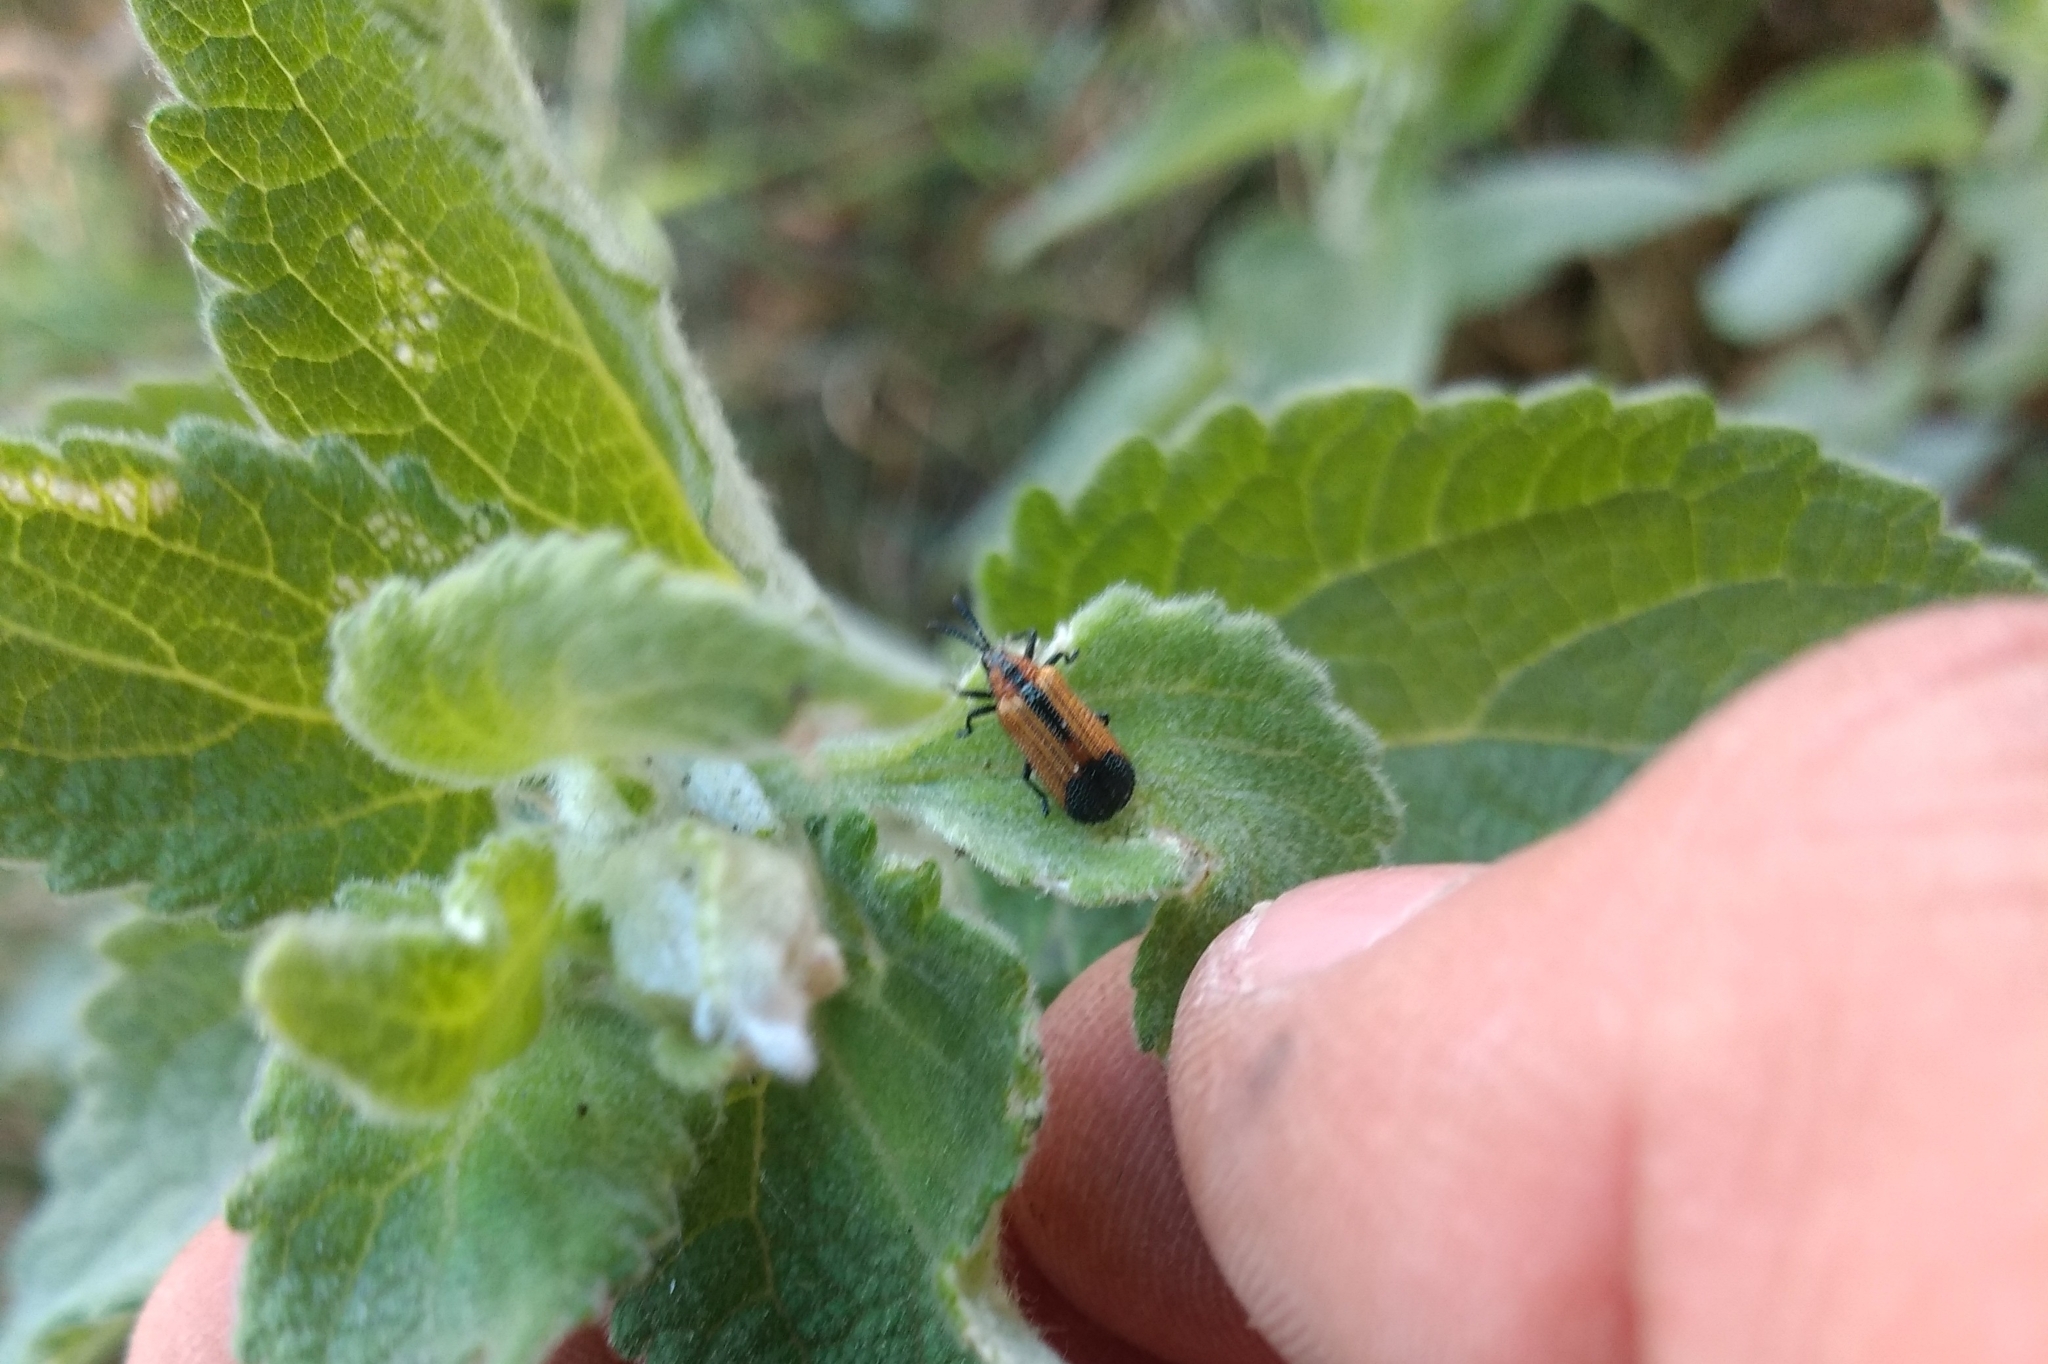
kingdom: Animalia
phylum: Arthropoda
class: Insecta
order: Coleoptera
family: Chrysomelidae
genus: Pentispa
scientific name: Pentispa melanura
